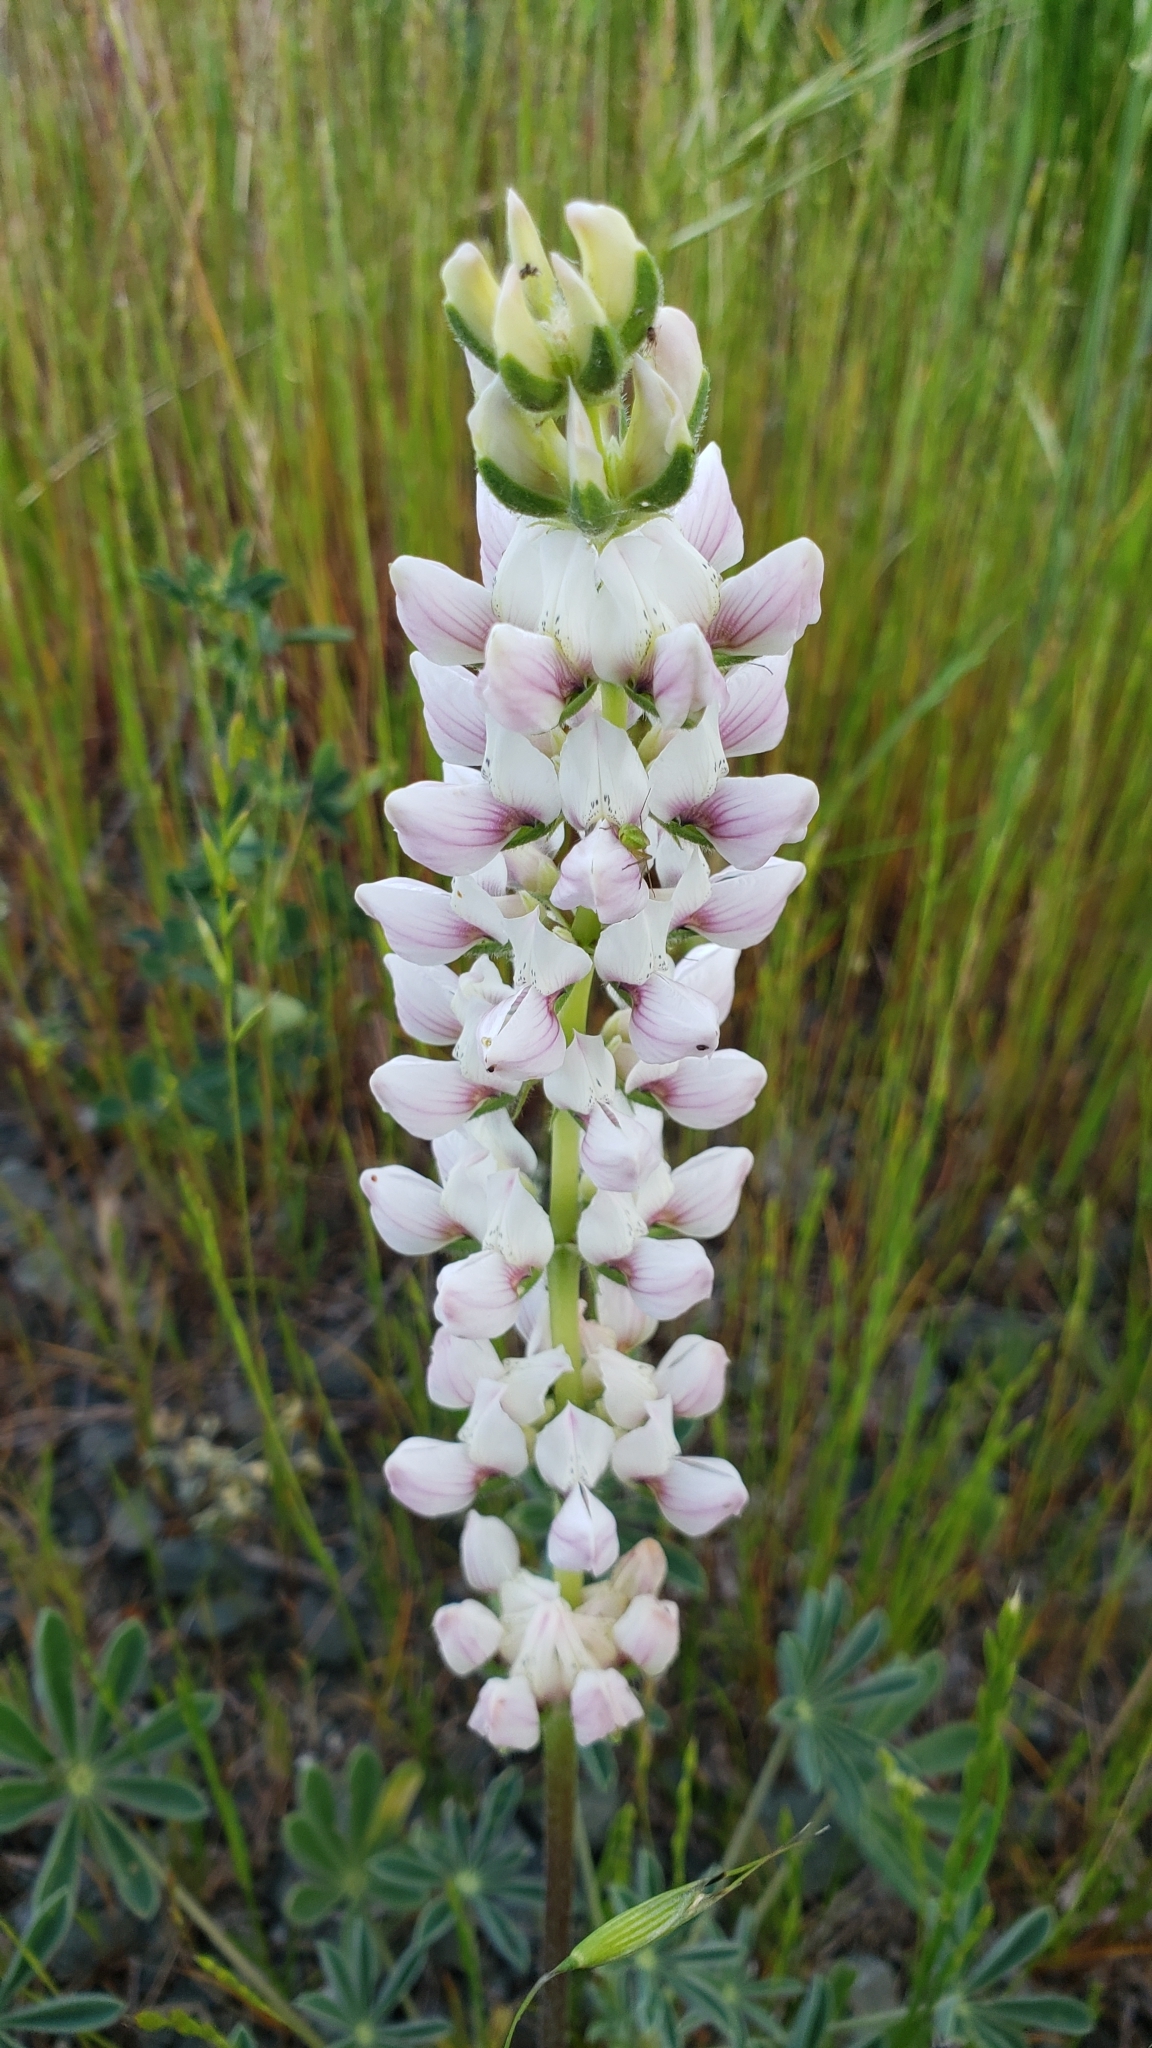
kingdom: Plantae
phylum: Tracheophyta
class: Magnoliopsida
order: Fabales
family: Fabaceae
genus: Lupinus
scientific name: Lupinus microcarpus
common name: Chick lupine
